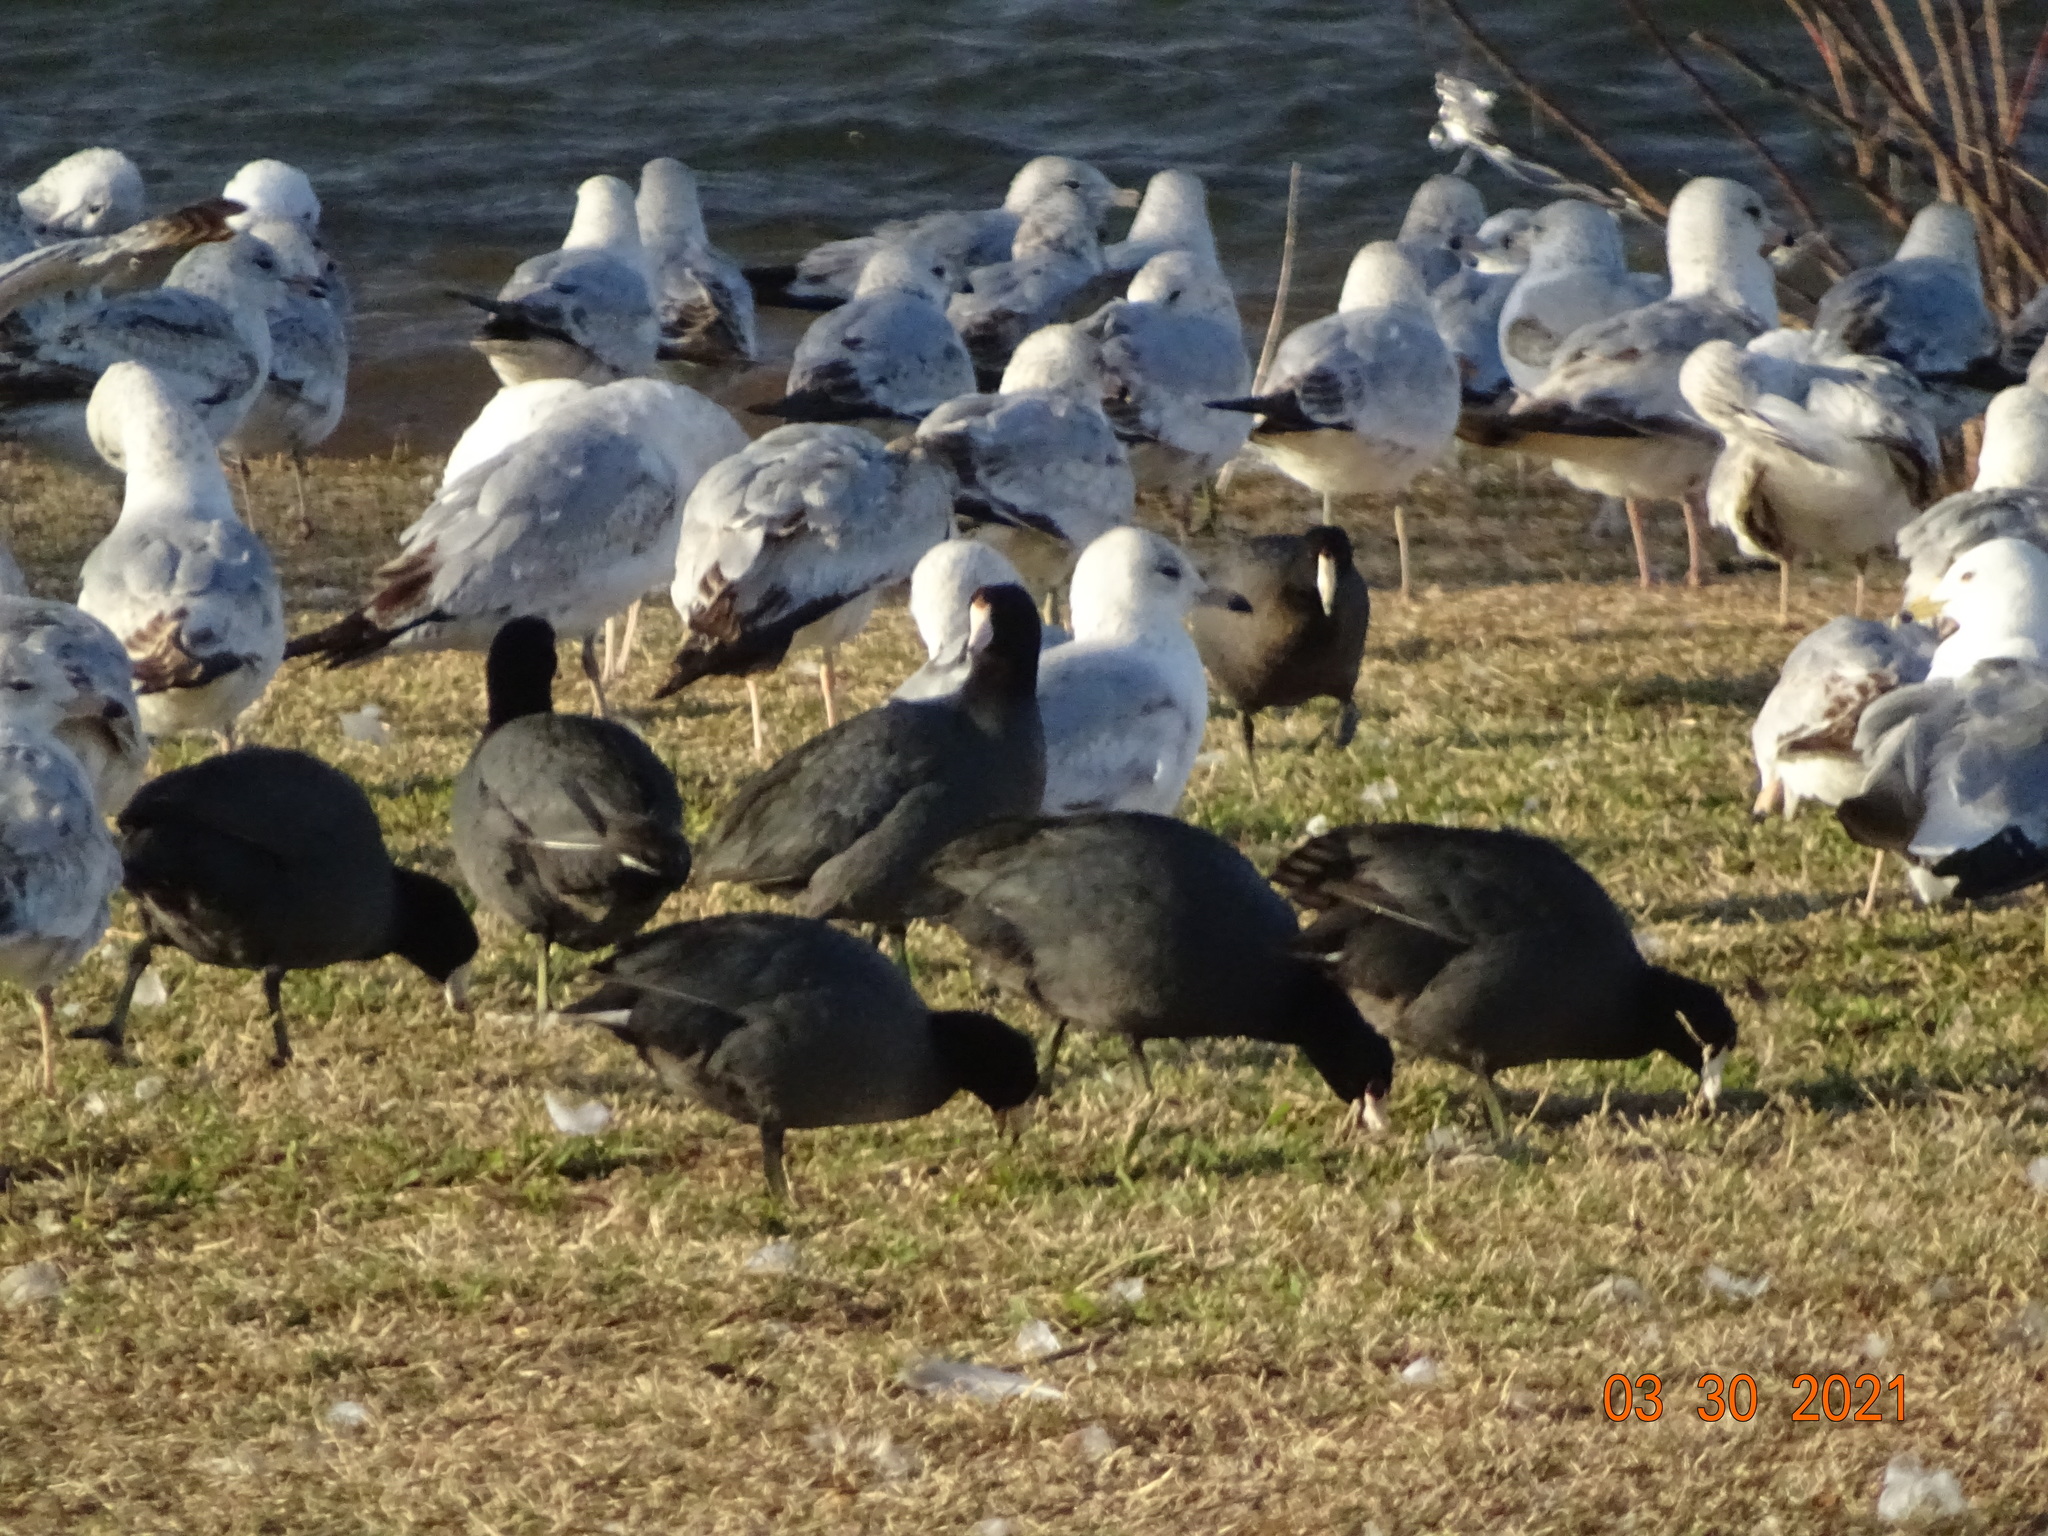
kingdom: Animalia
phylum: Chordata
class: Aves
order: Gruiformes
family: Rallidae
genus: Fulica
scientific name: Fulica americana
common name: American coot
